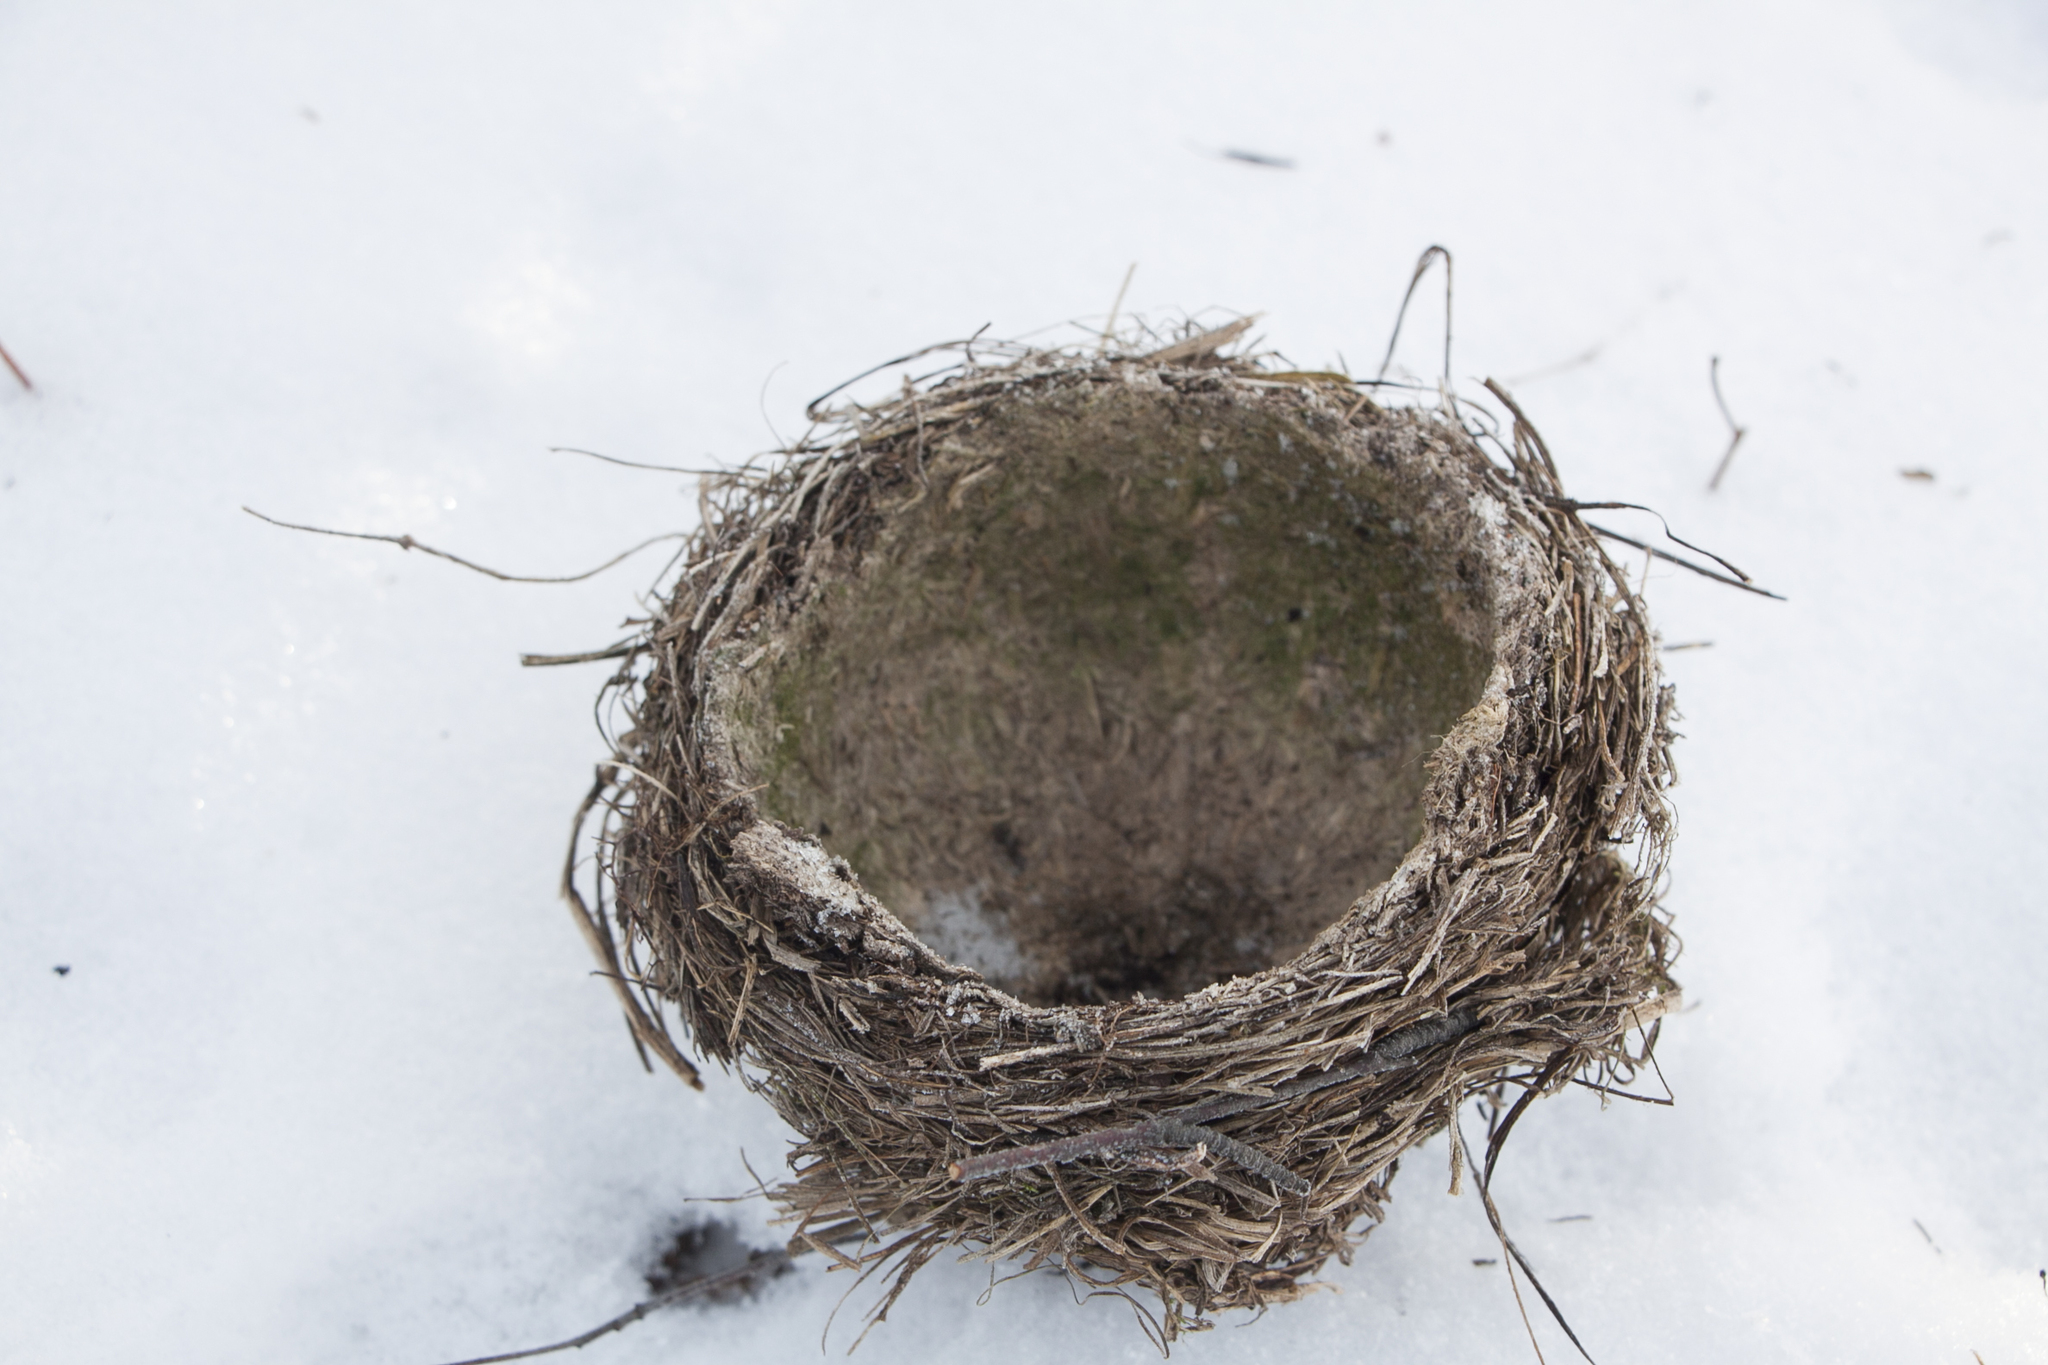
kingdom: Animalia
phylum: Chordata
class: Aves
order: Passeriformes
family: Turdidae
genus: Turdus
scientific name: Turdus philomelos
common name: Song thrush
